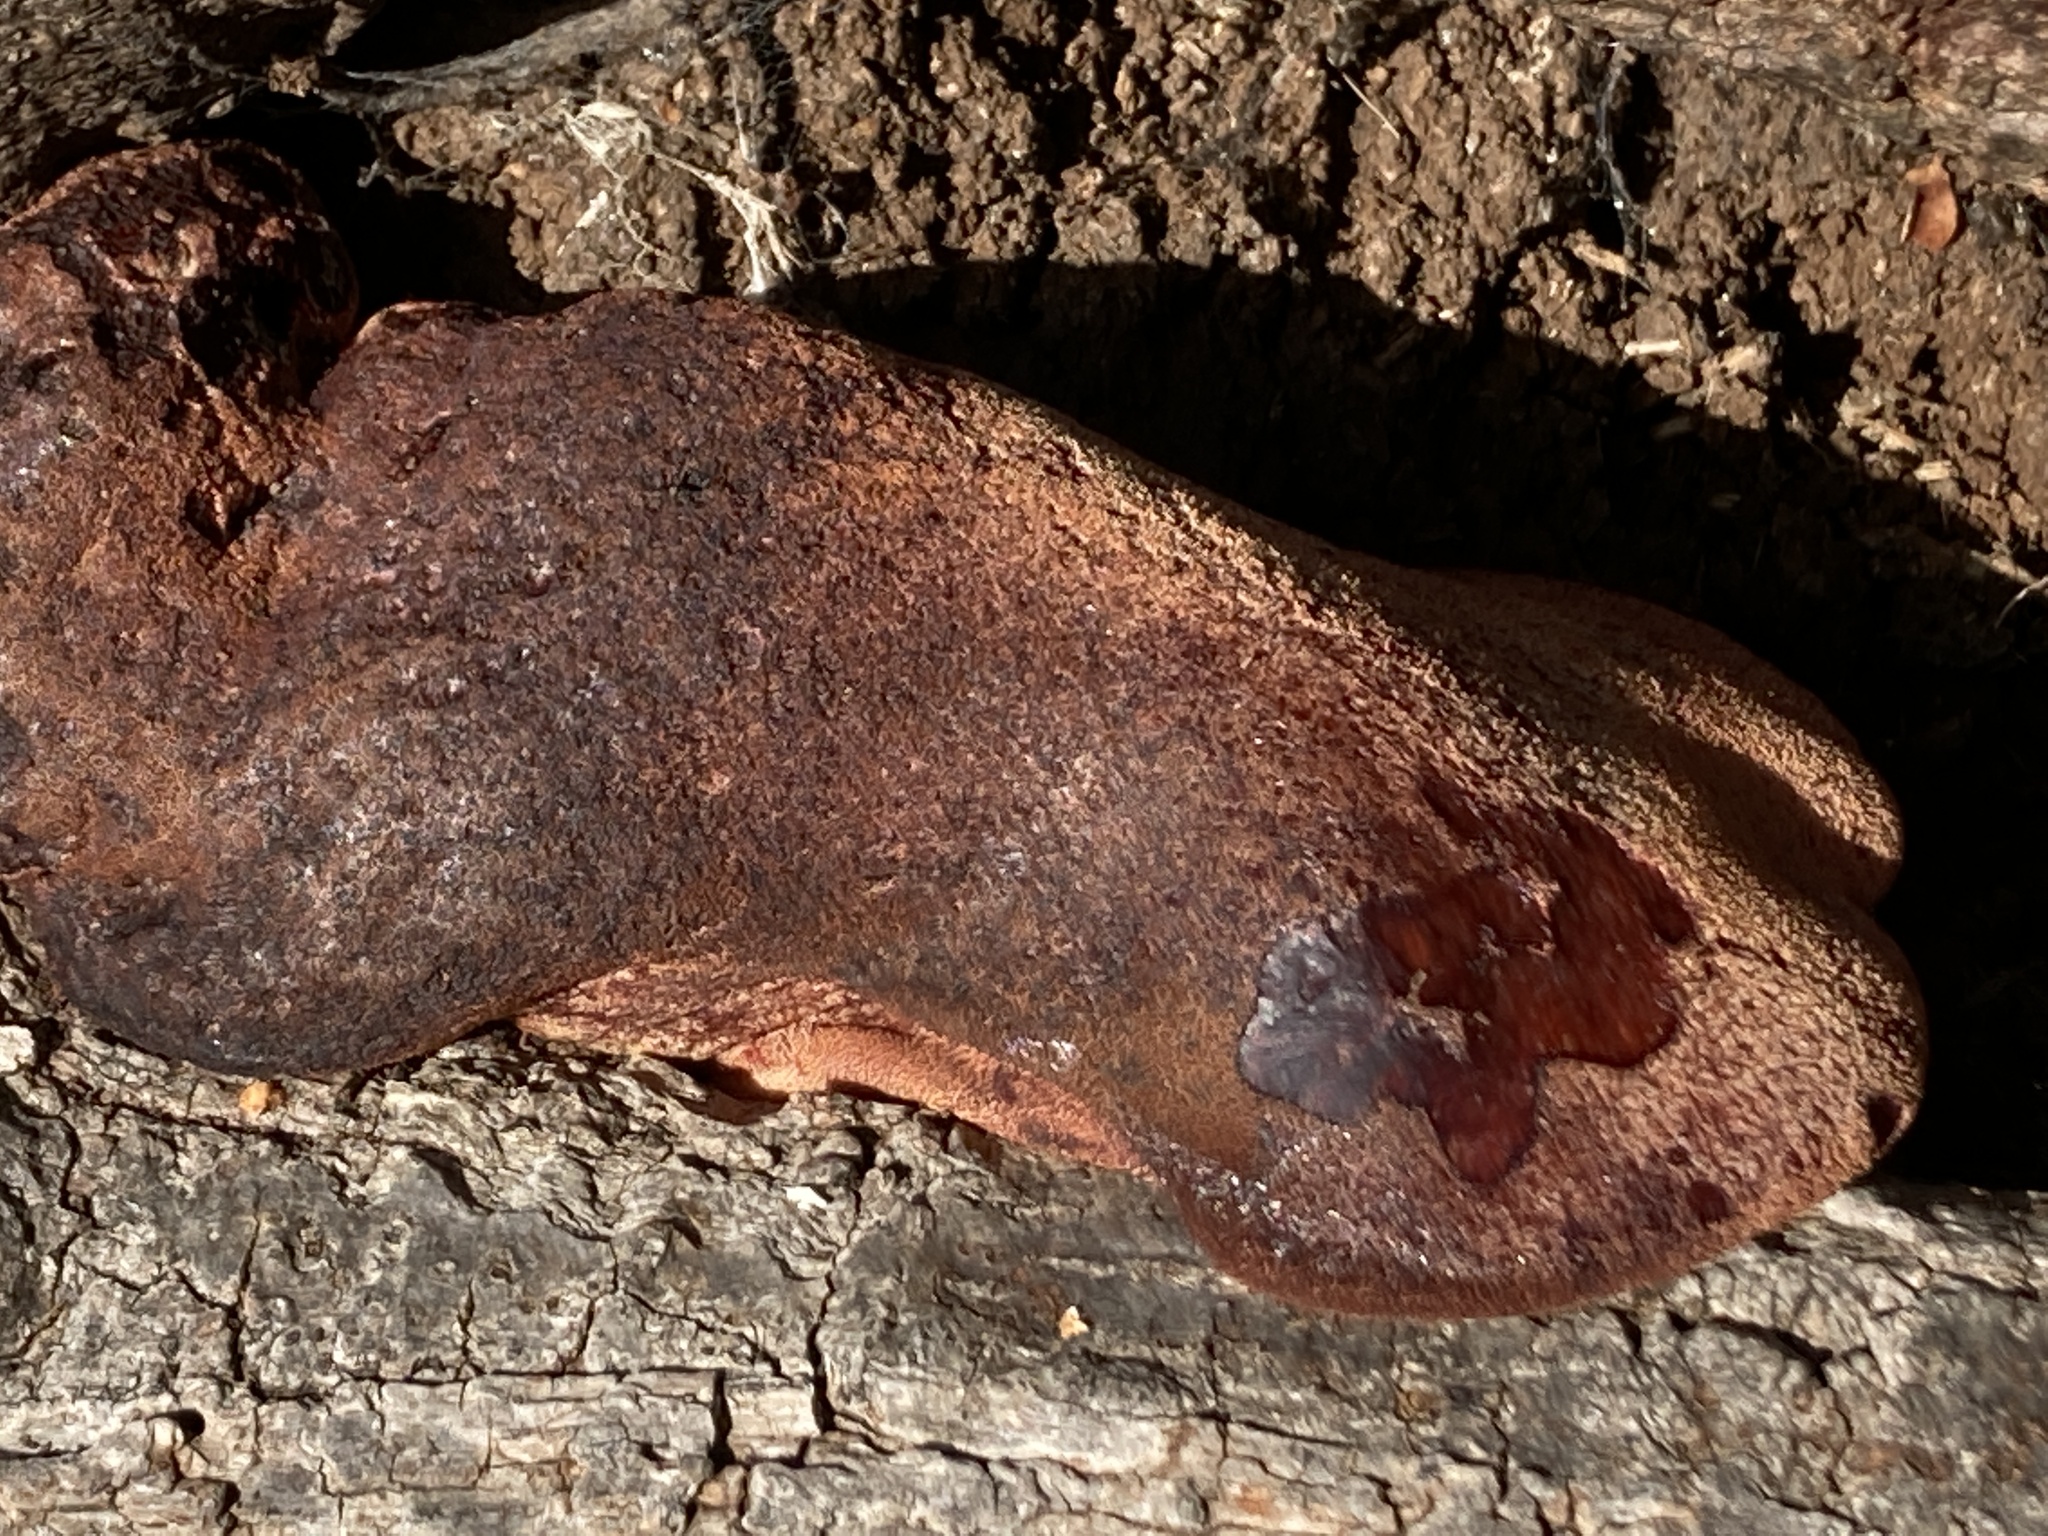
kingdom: Fungi
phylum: Basidiomycota
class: Agaricomycetes
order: Agaricales
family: Fistulinaceae
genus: Fistulina
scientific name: Fistulina hepatica
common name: Beef-steak fungus
